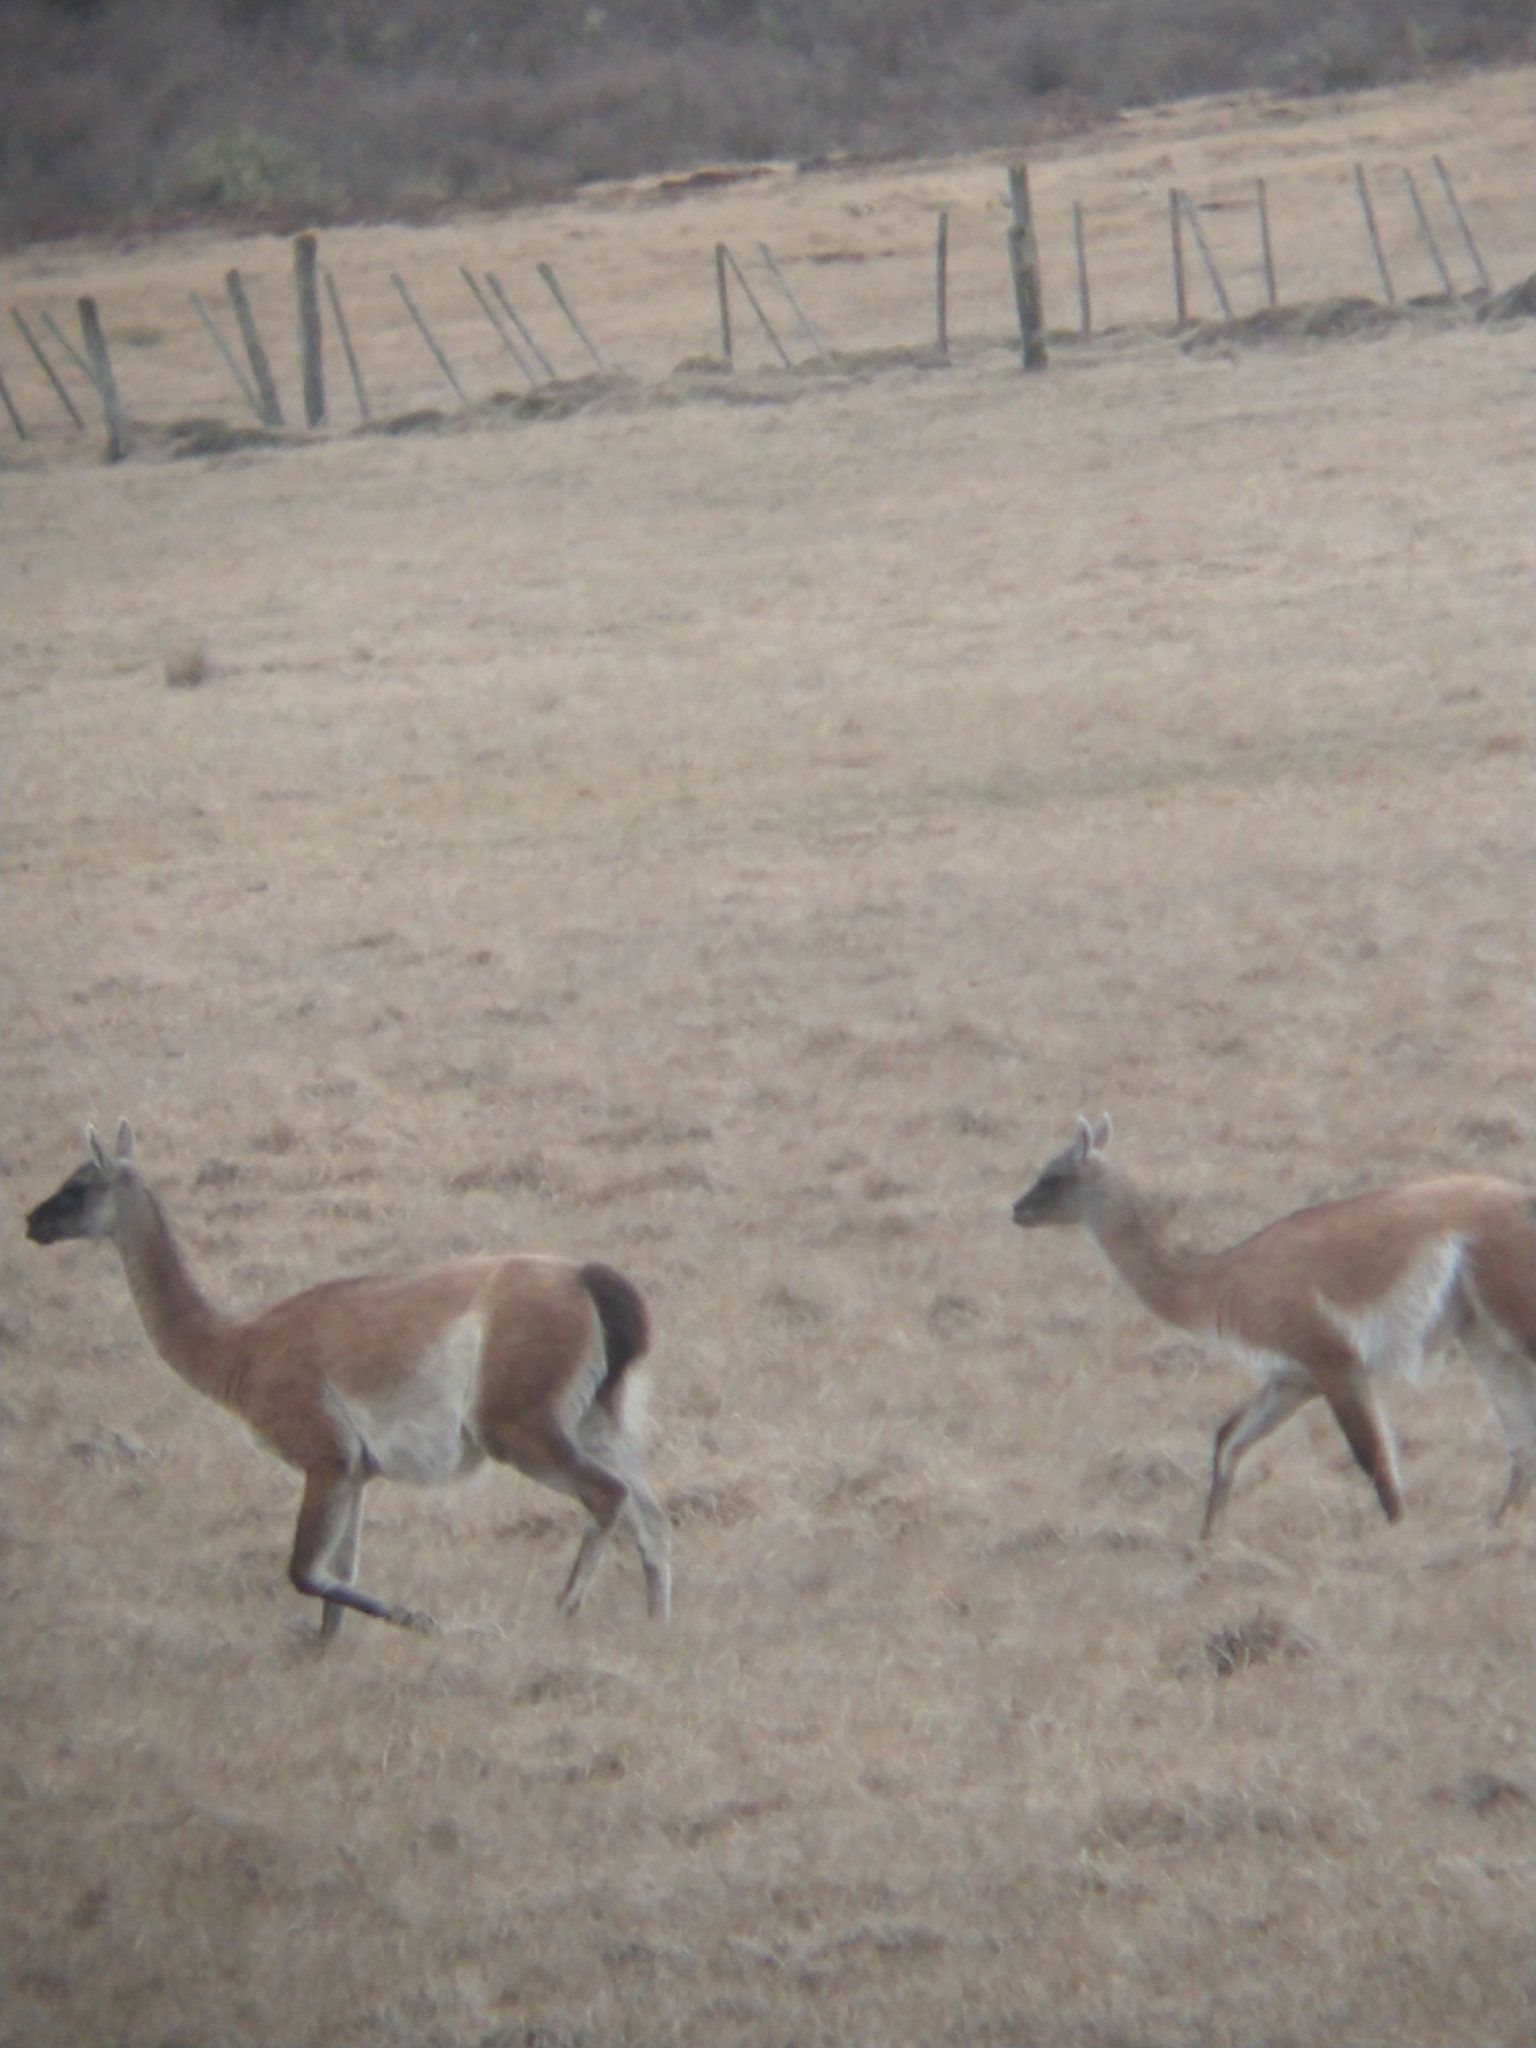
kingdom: Animalia
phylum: Chordata
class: Mammalia
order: Artiodactyla
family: Camelidae
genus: Lama
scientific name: Lama glama
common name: Llama
